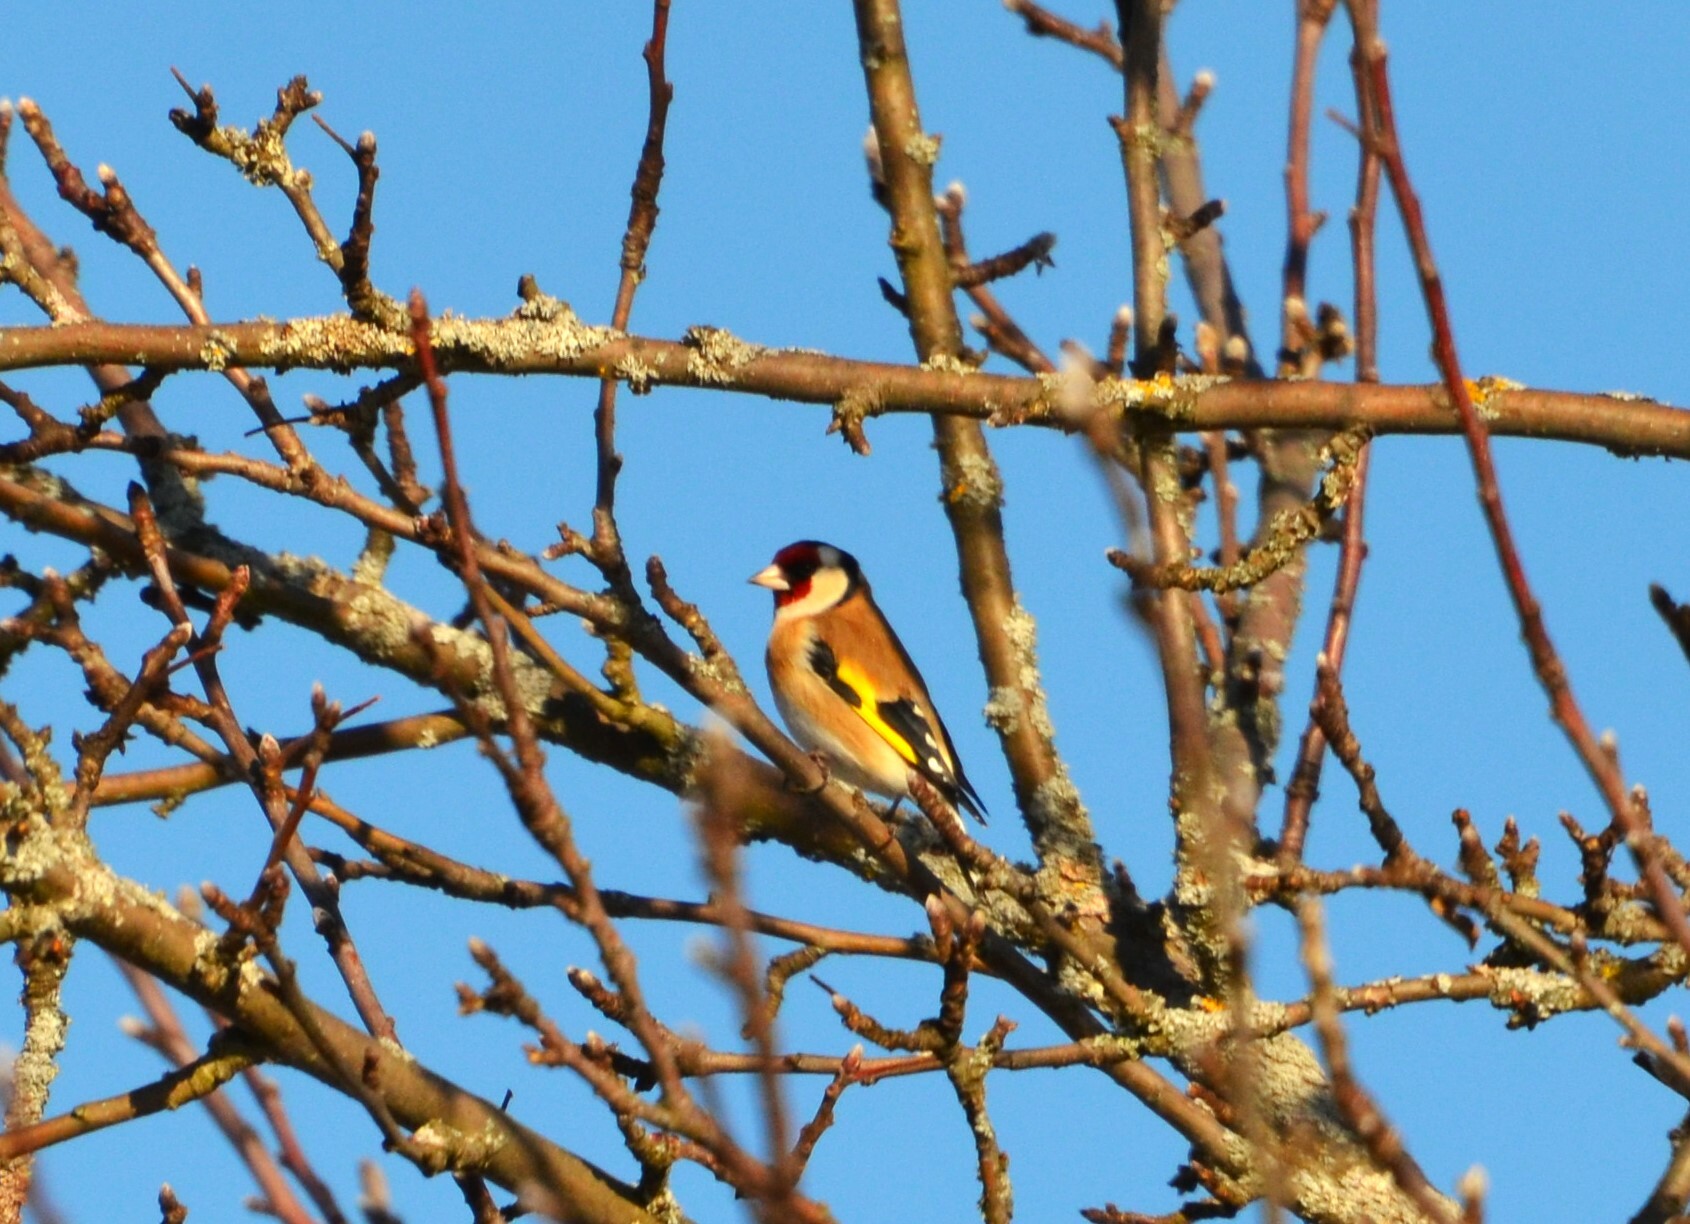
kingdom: Animalia
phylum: Chordata
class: Aves
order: Passeriformes
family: Fringillidae
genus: Carduelis
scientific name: Carduelis carduelis
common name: European goldfinch
